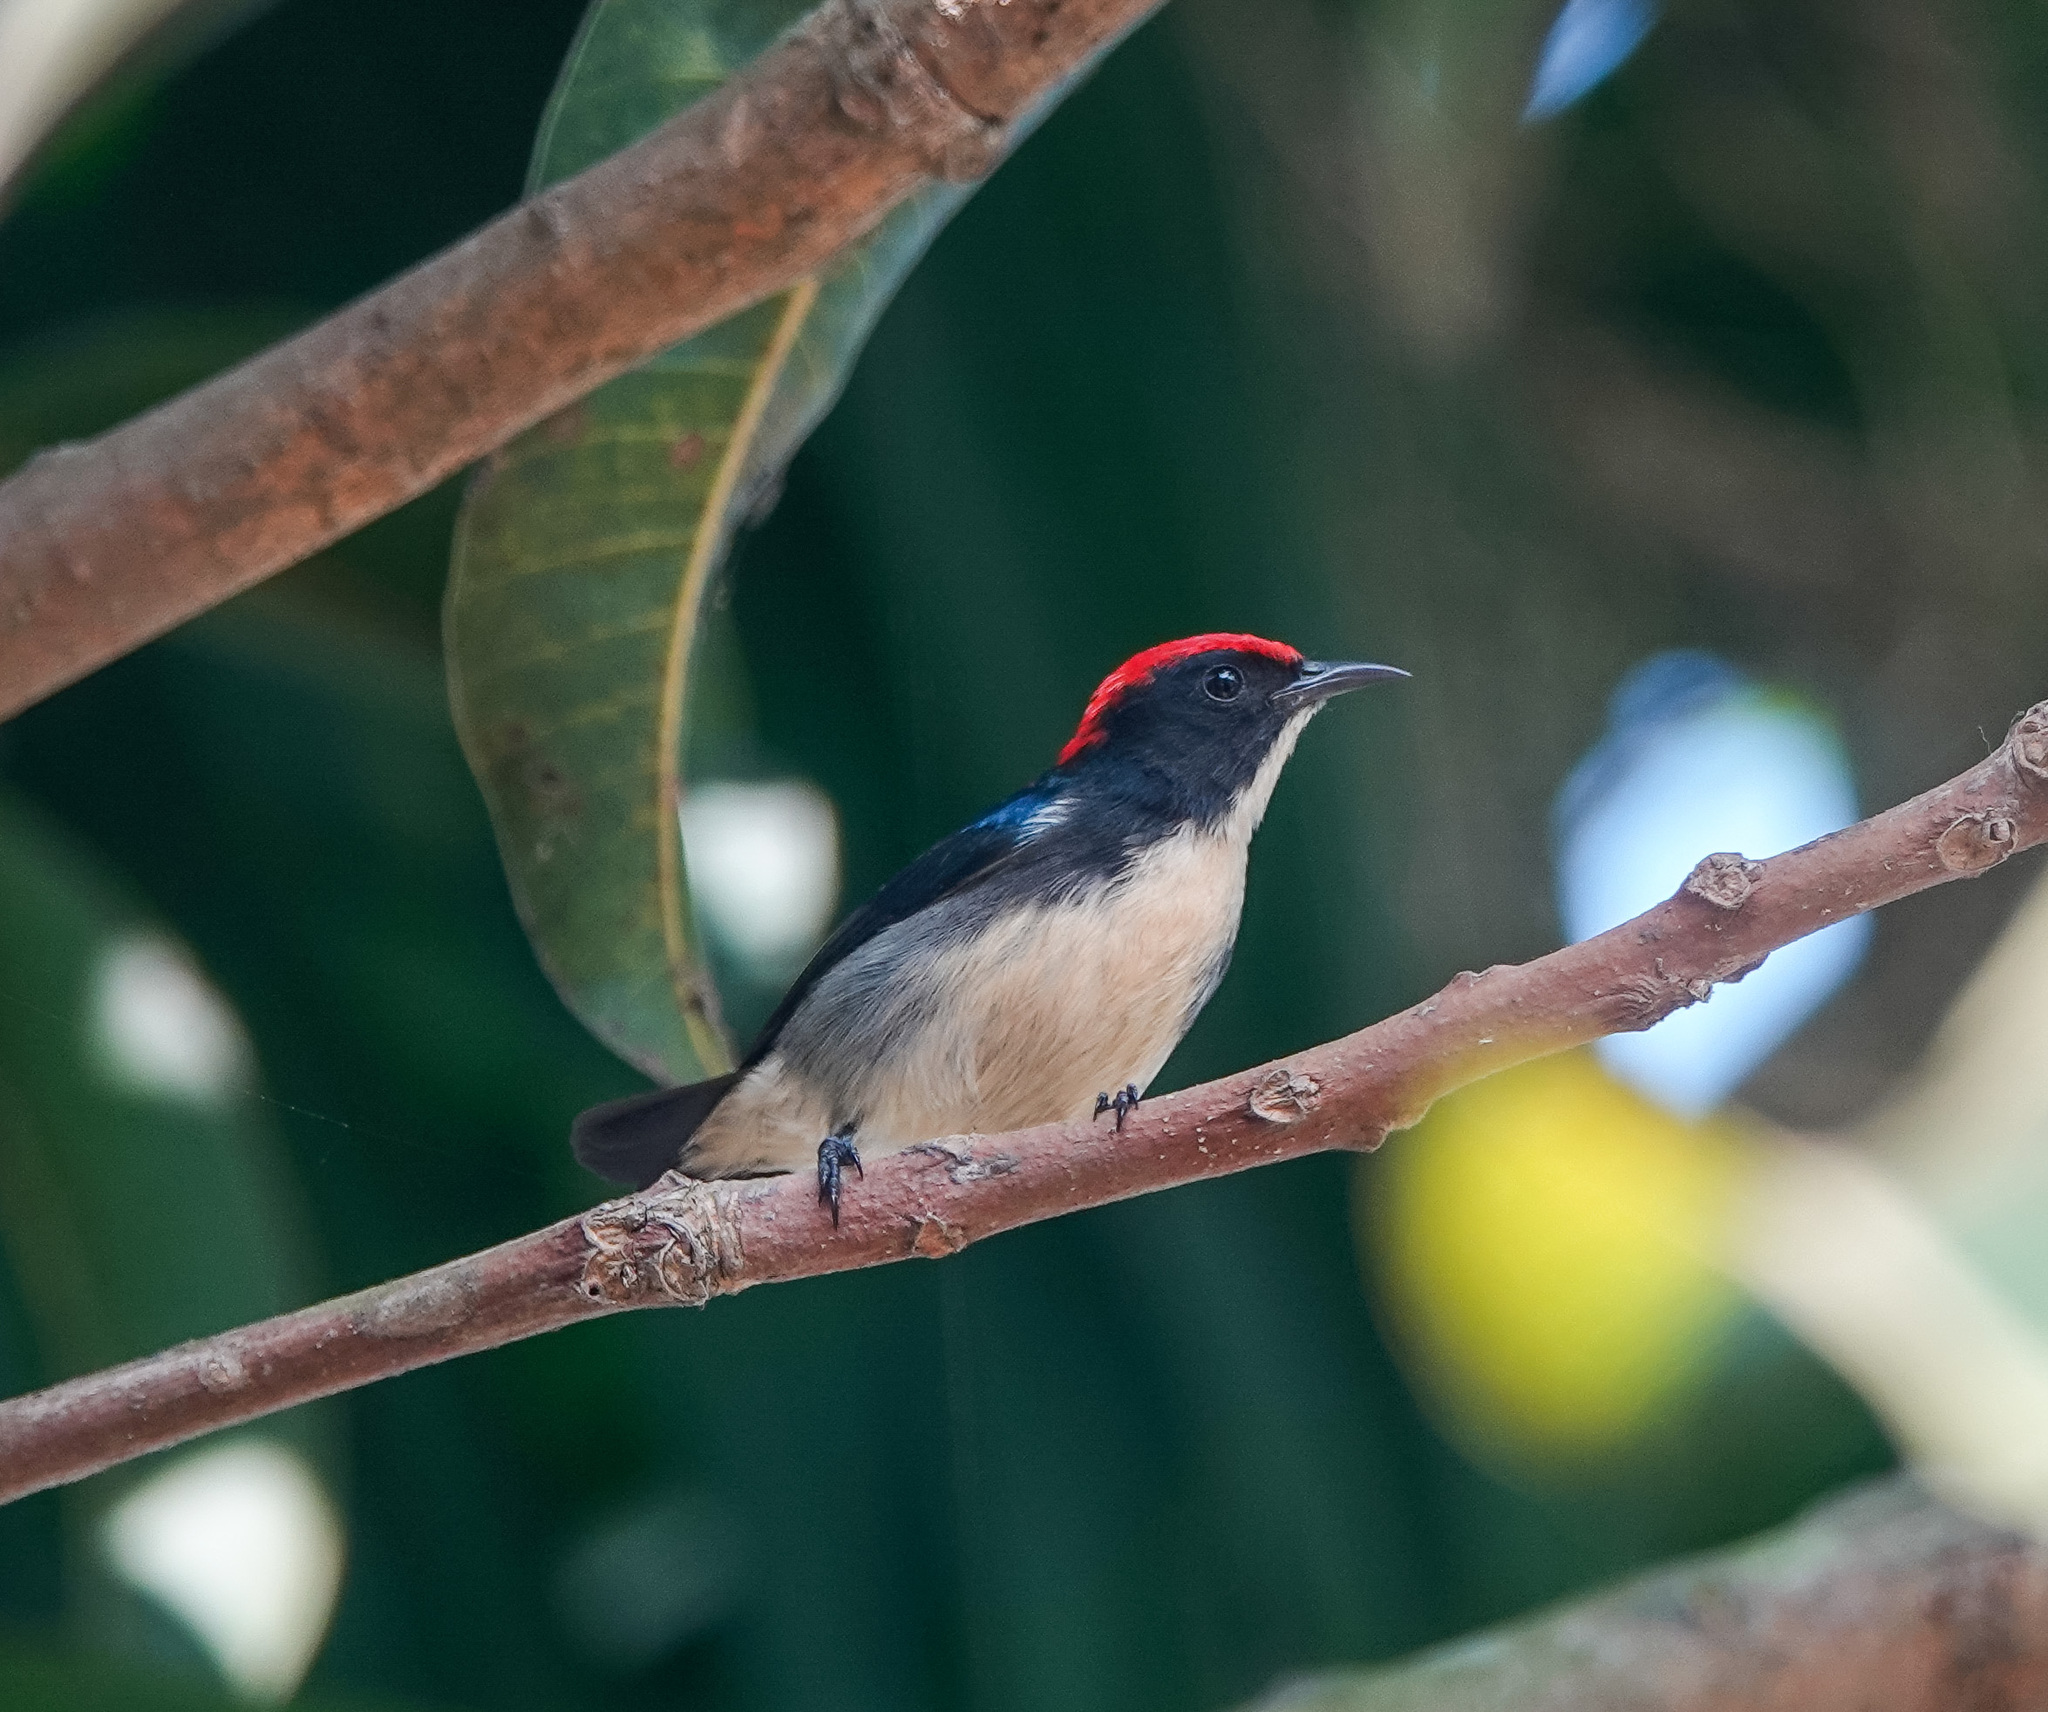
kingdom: Animalia
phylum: Chordata
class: Aves
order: Passeriformes
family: Dicaeidae
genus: Dicaeum
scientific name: Dicaeum cruentatum
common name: Scarlet-backed flowerpecker
